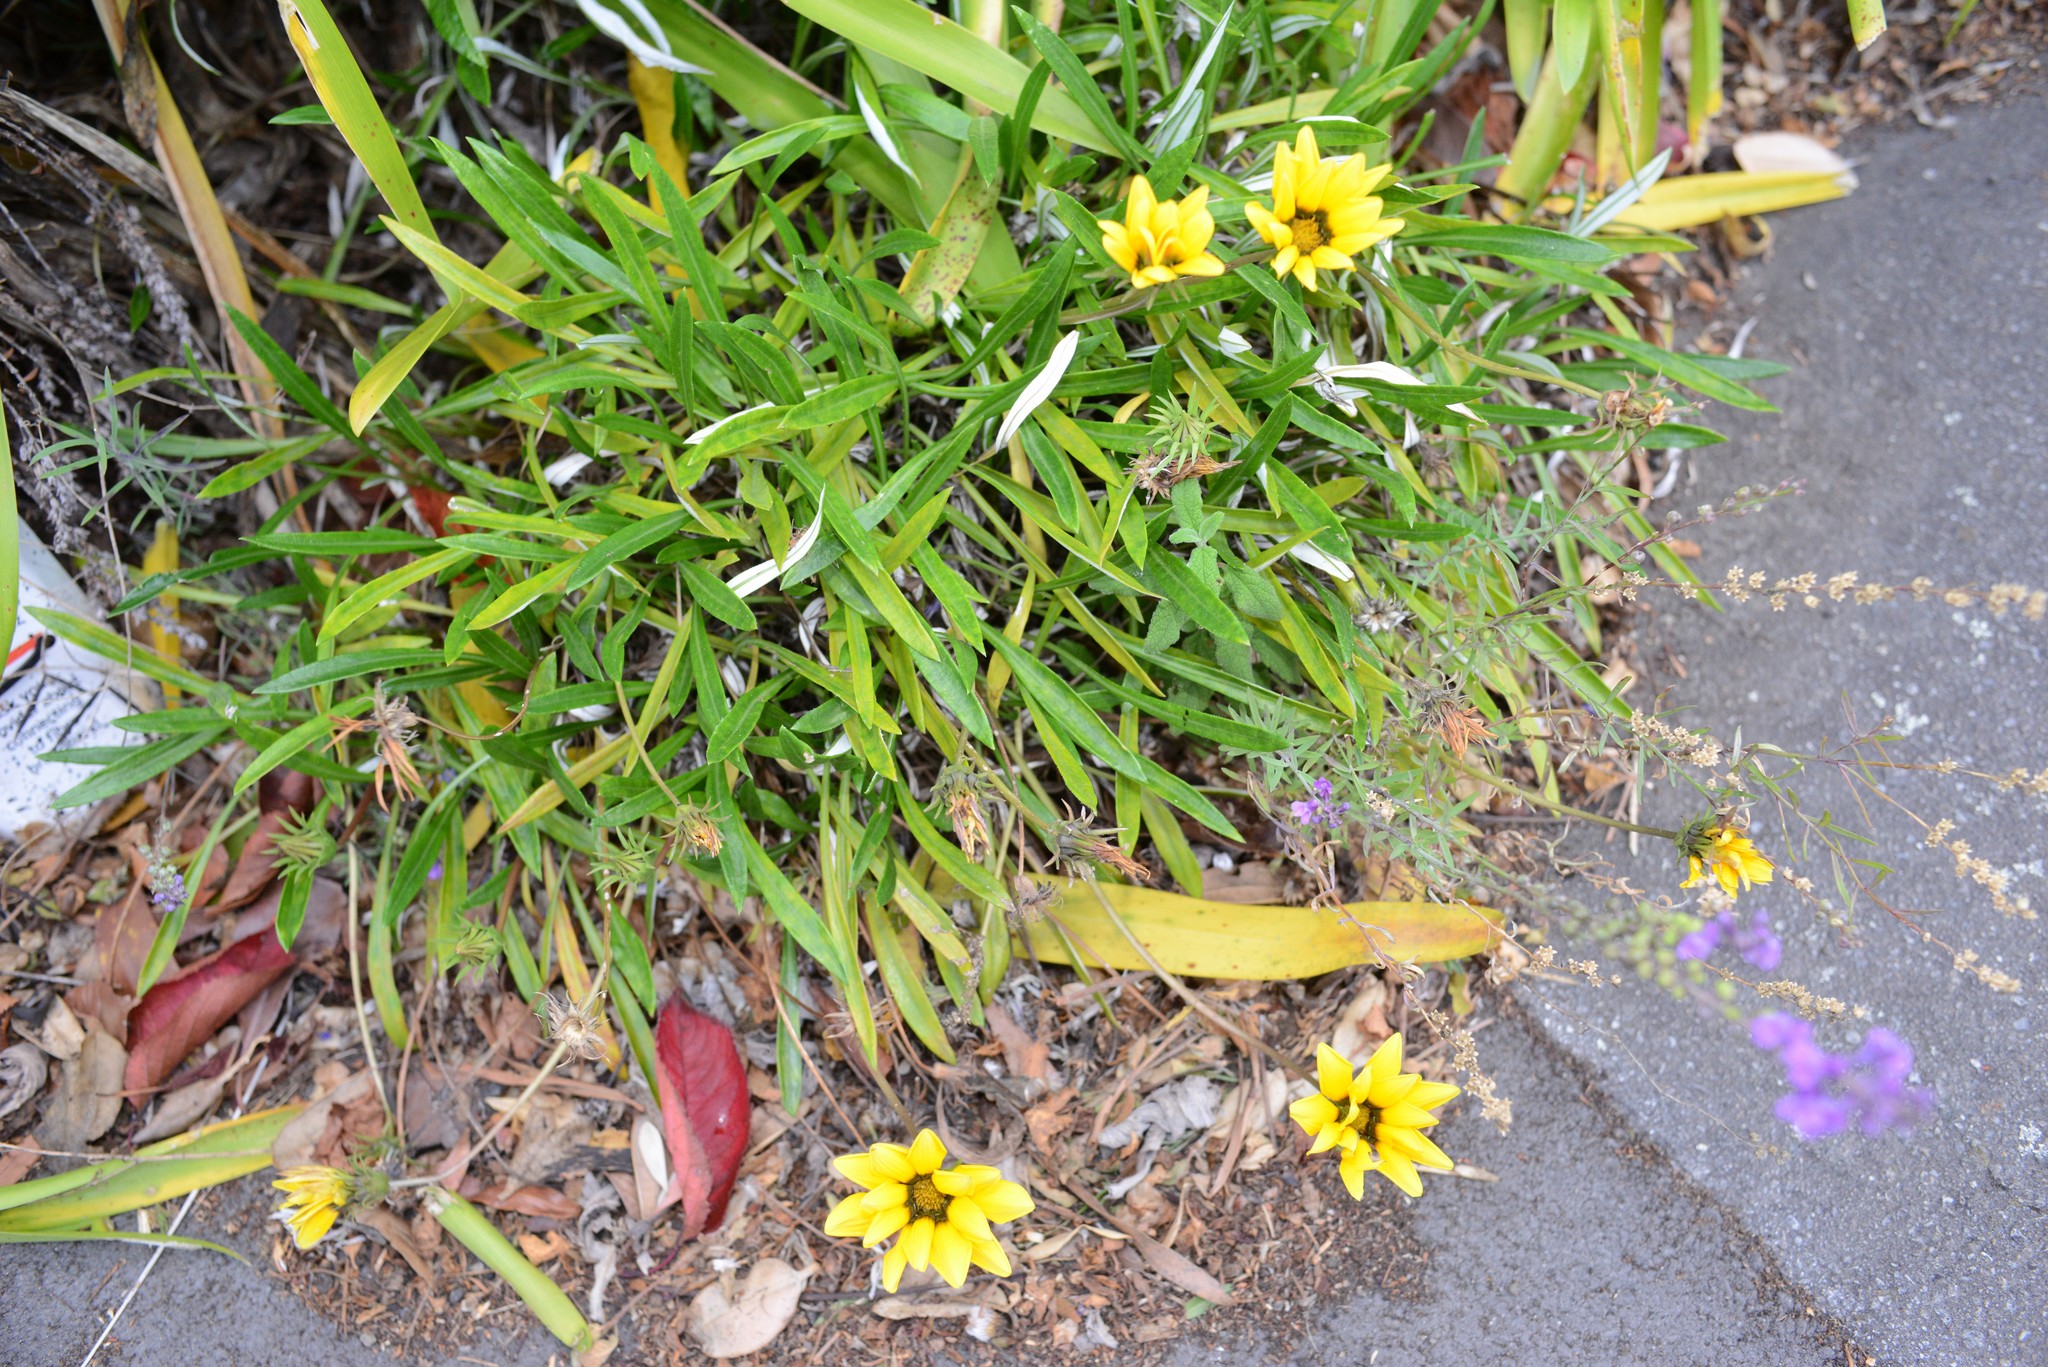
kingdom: Plantae
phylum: Tracheophyta
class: Magnoliopsida
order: Asterales
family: Asteraceae
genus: Gazania
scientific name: Gazania rigens
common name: Treasureflower
